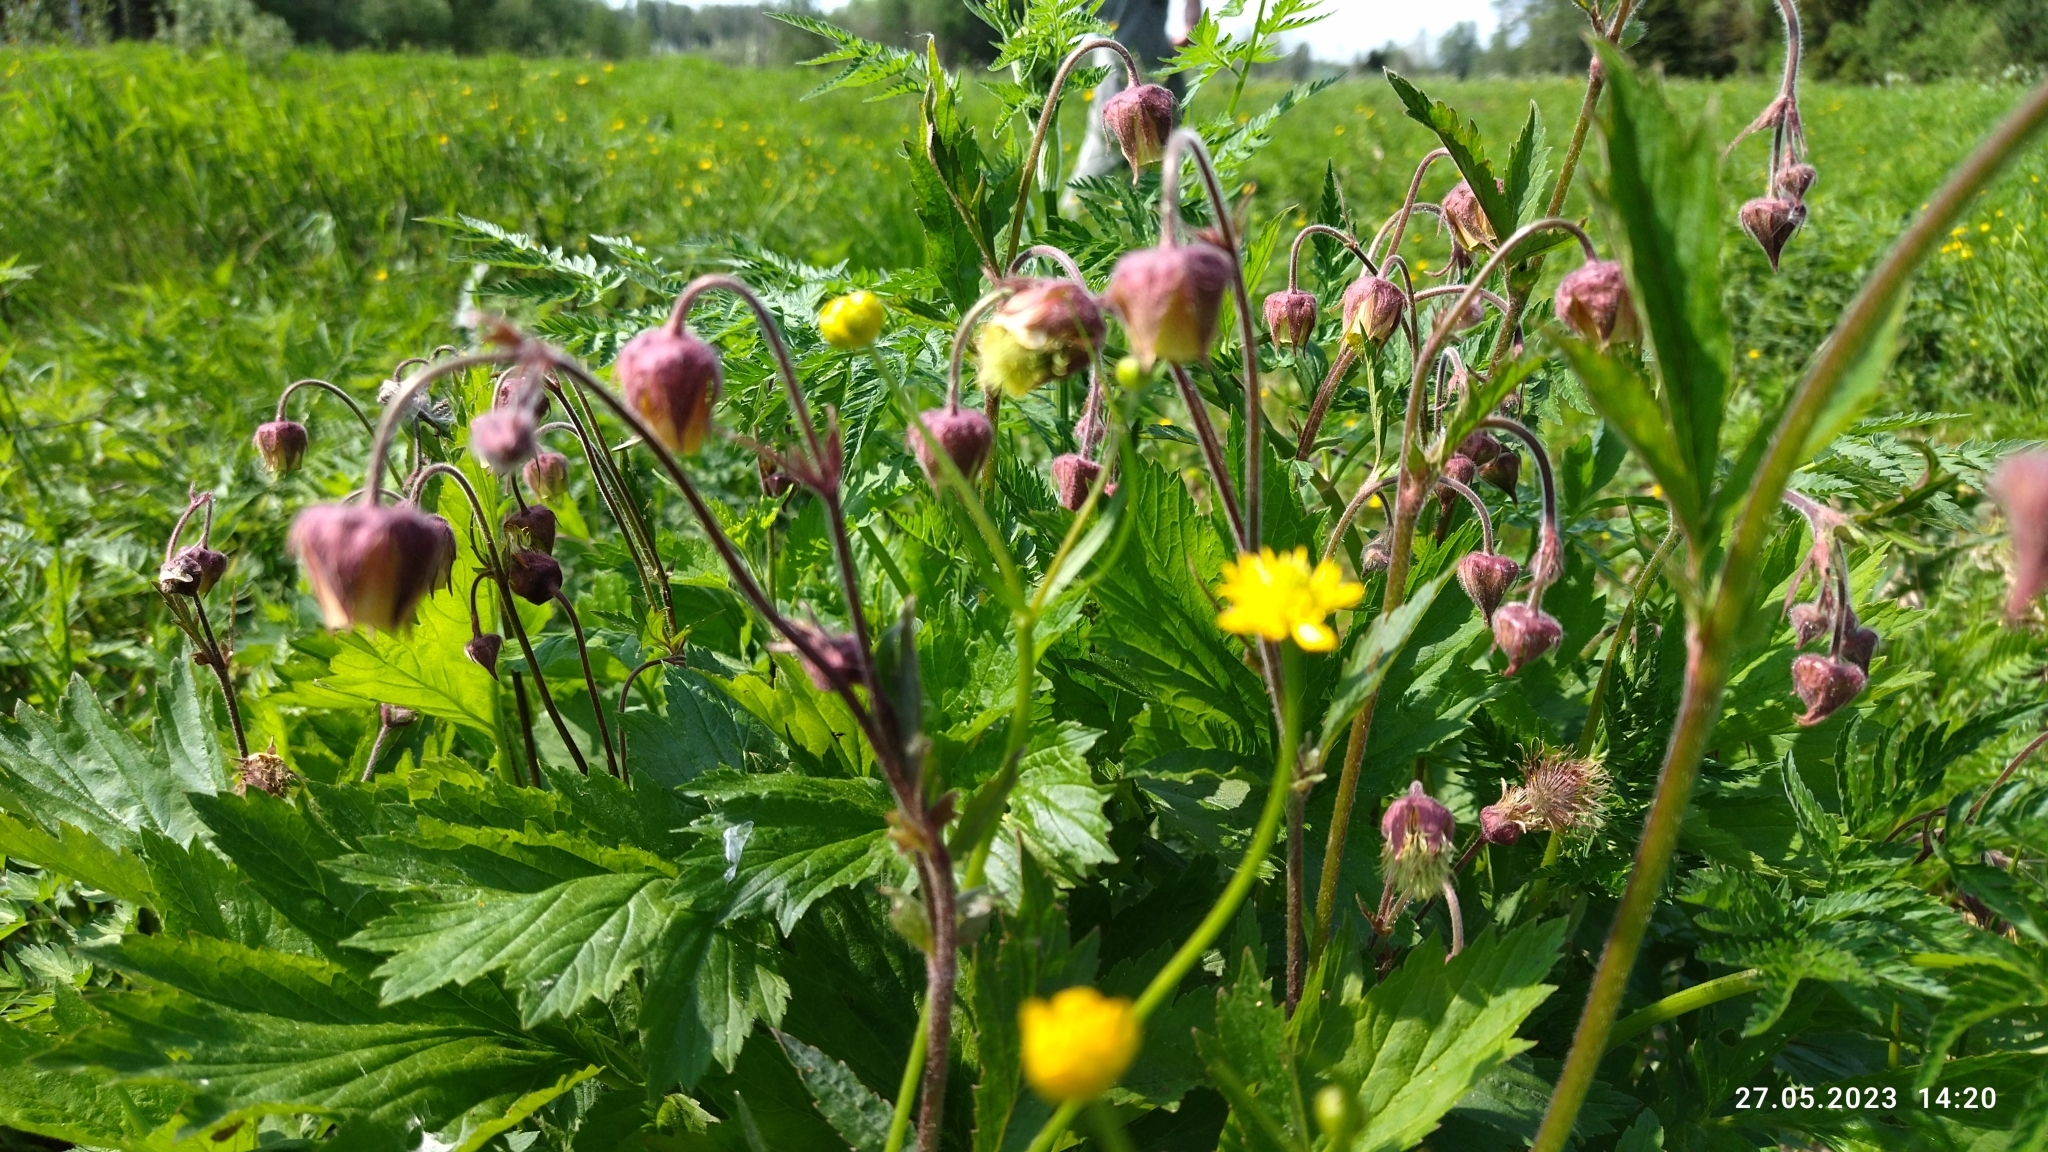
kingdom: Plantae
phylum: Tracheophyta
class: Magnoliopsida
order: Rosales
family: Rosaceae
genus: Geum
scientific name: Geum rivale
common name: Water avens
